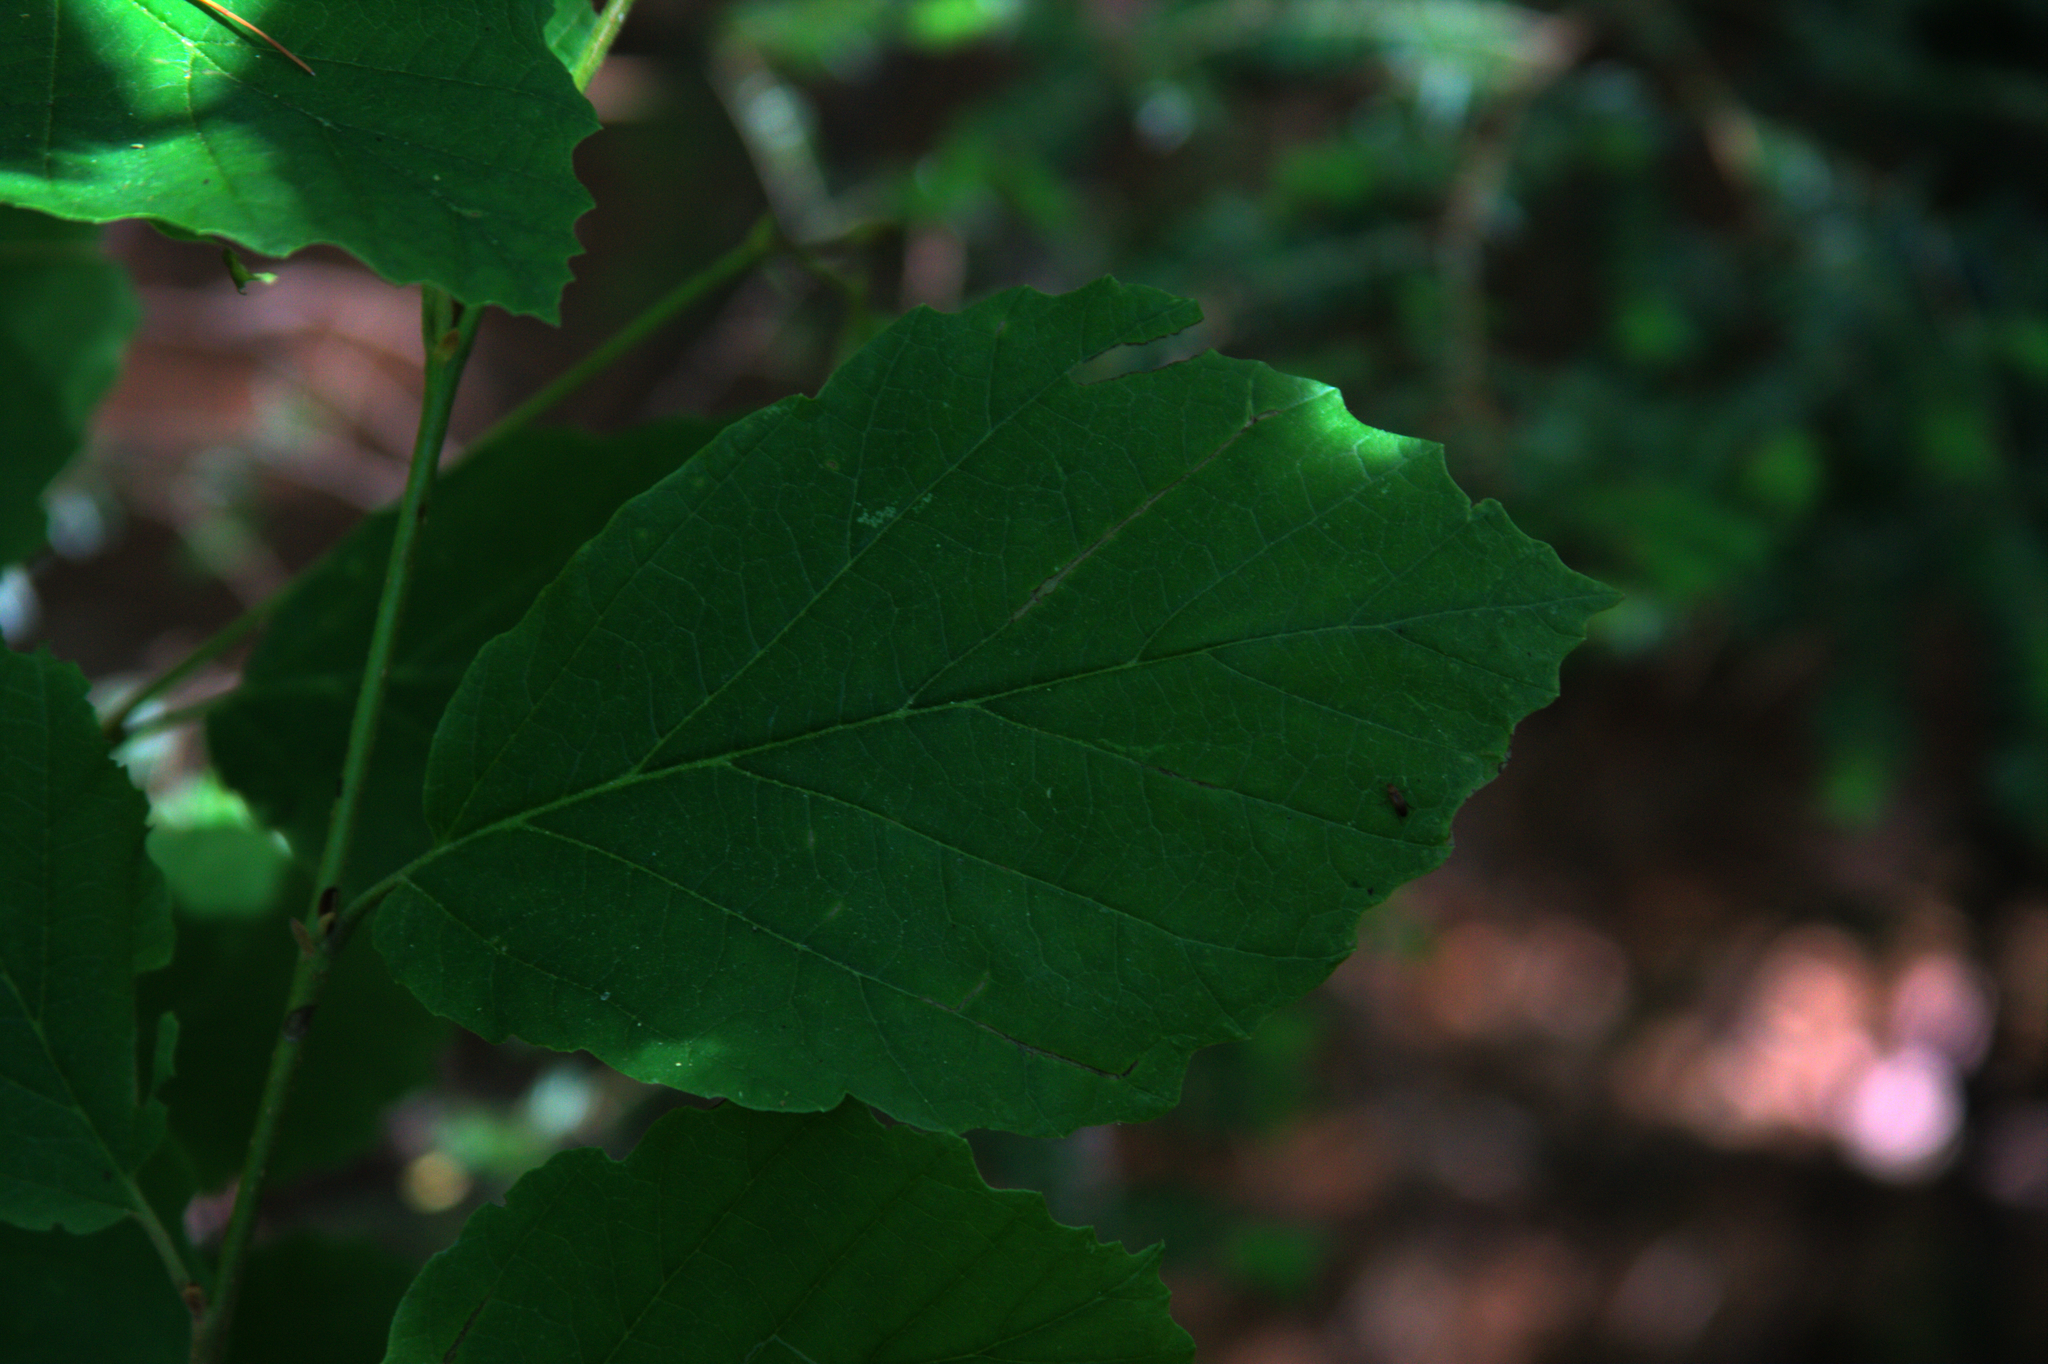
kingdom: Plantae
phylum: Tracheophyta
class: Magnoliopsida
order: Saxifragales
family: Hamamelidaceae
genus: Hamamelis
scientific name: Hamamelis virginiana
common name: Witch-hazel
